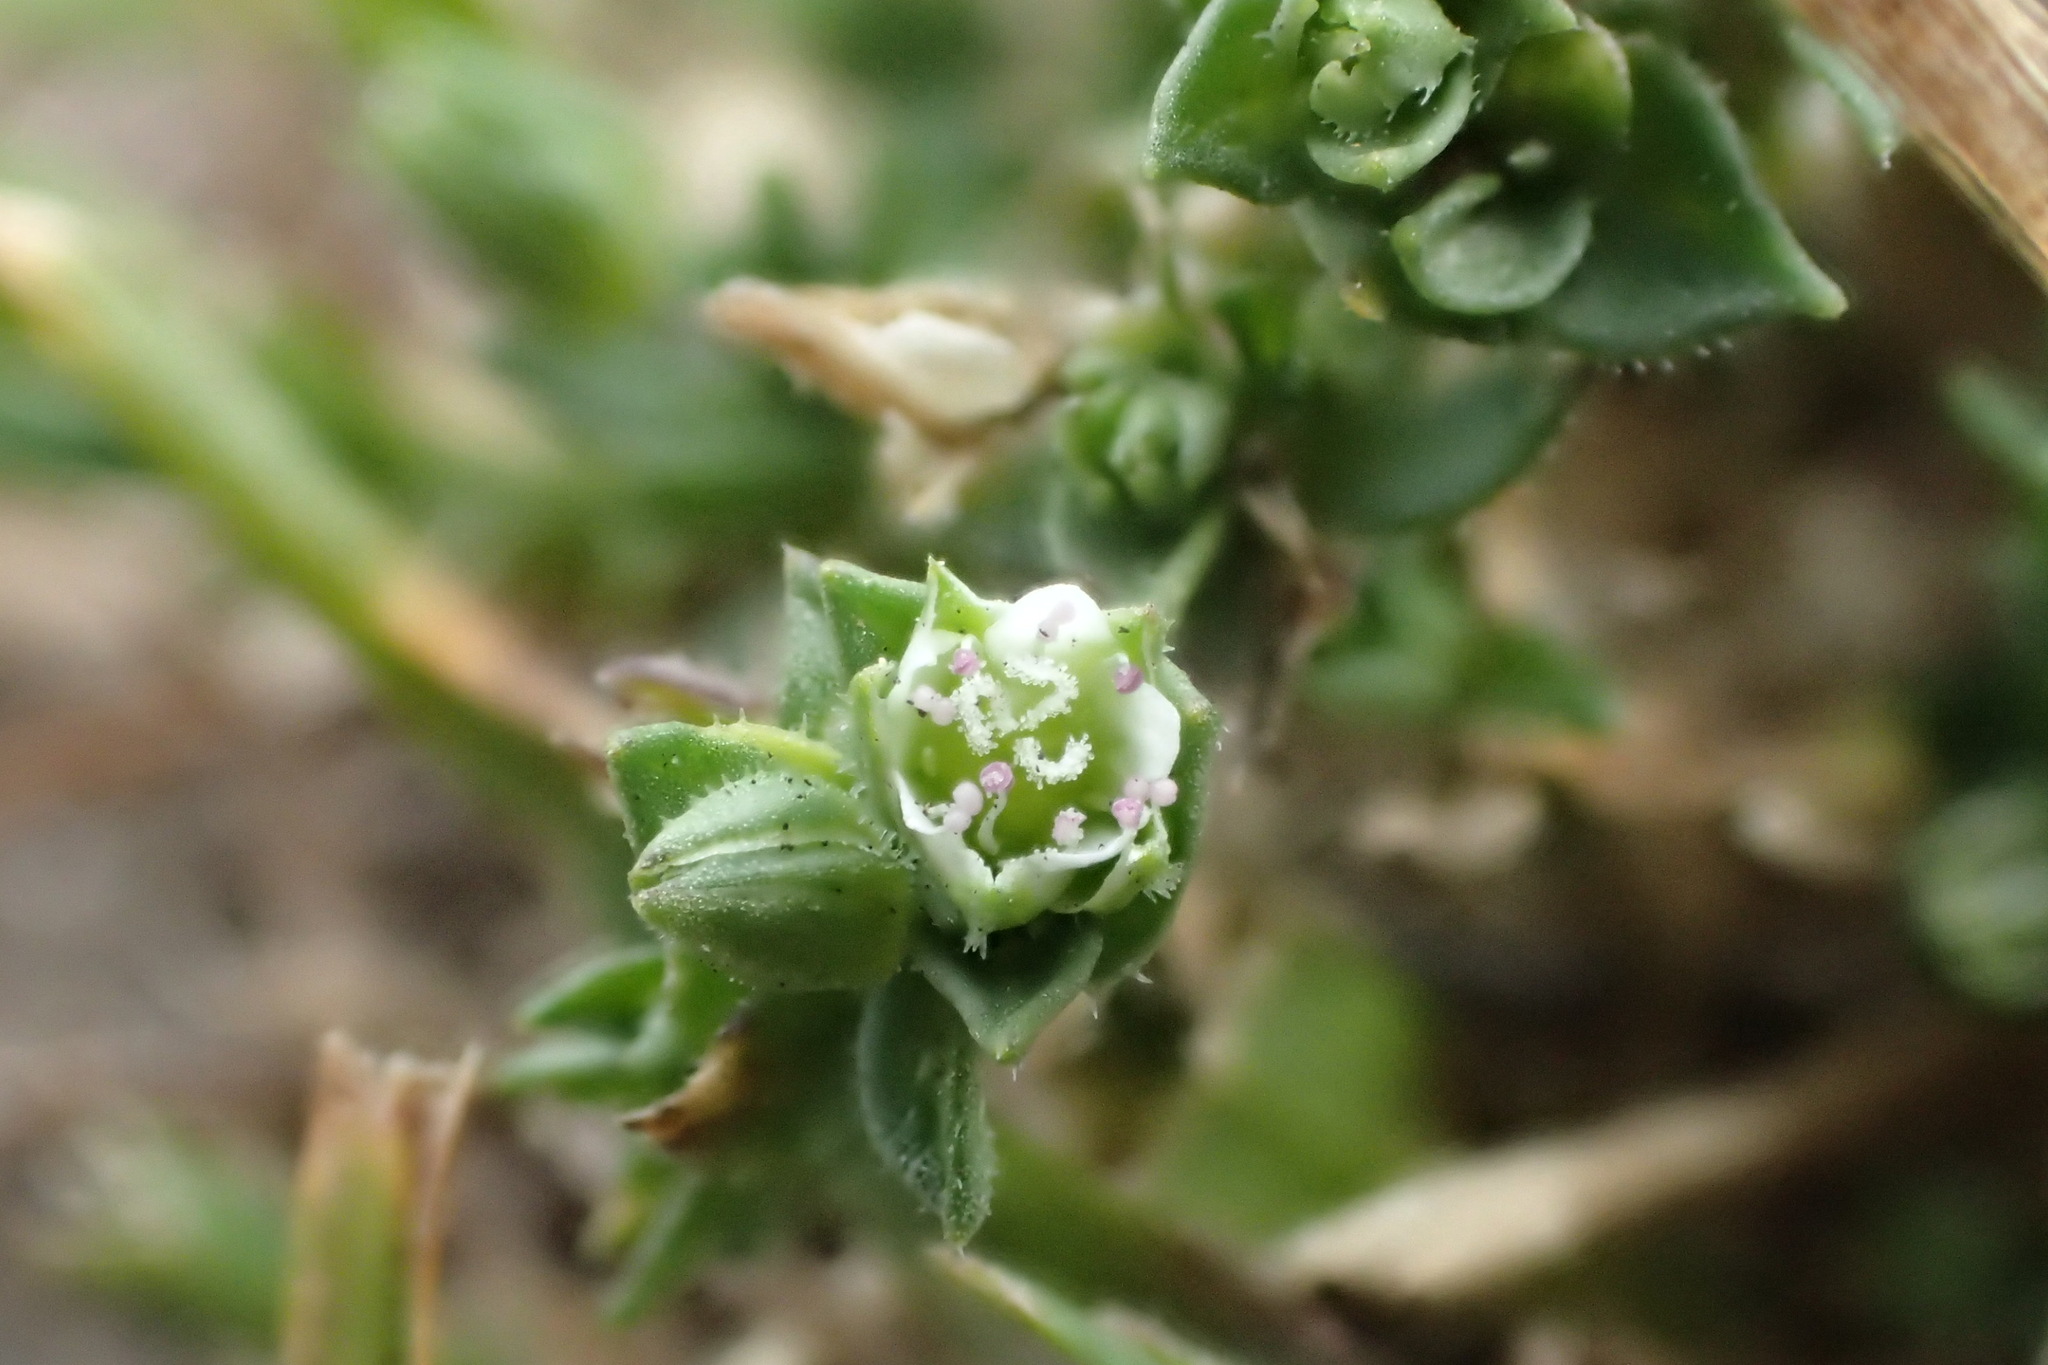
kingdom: Plantae
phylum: Tracheophyta
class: Magnoliopsida
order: Caryophyllales
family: Caryophyllaceae
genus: Arenaria
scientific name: Arenaria serpyllifolia
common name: Thyme-leaved sandwort
